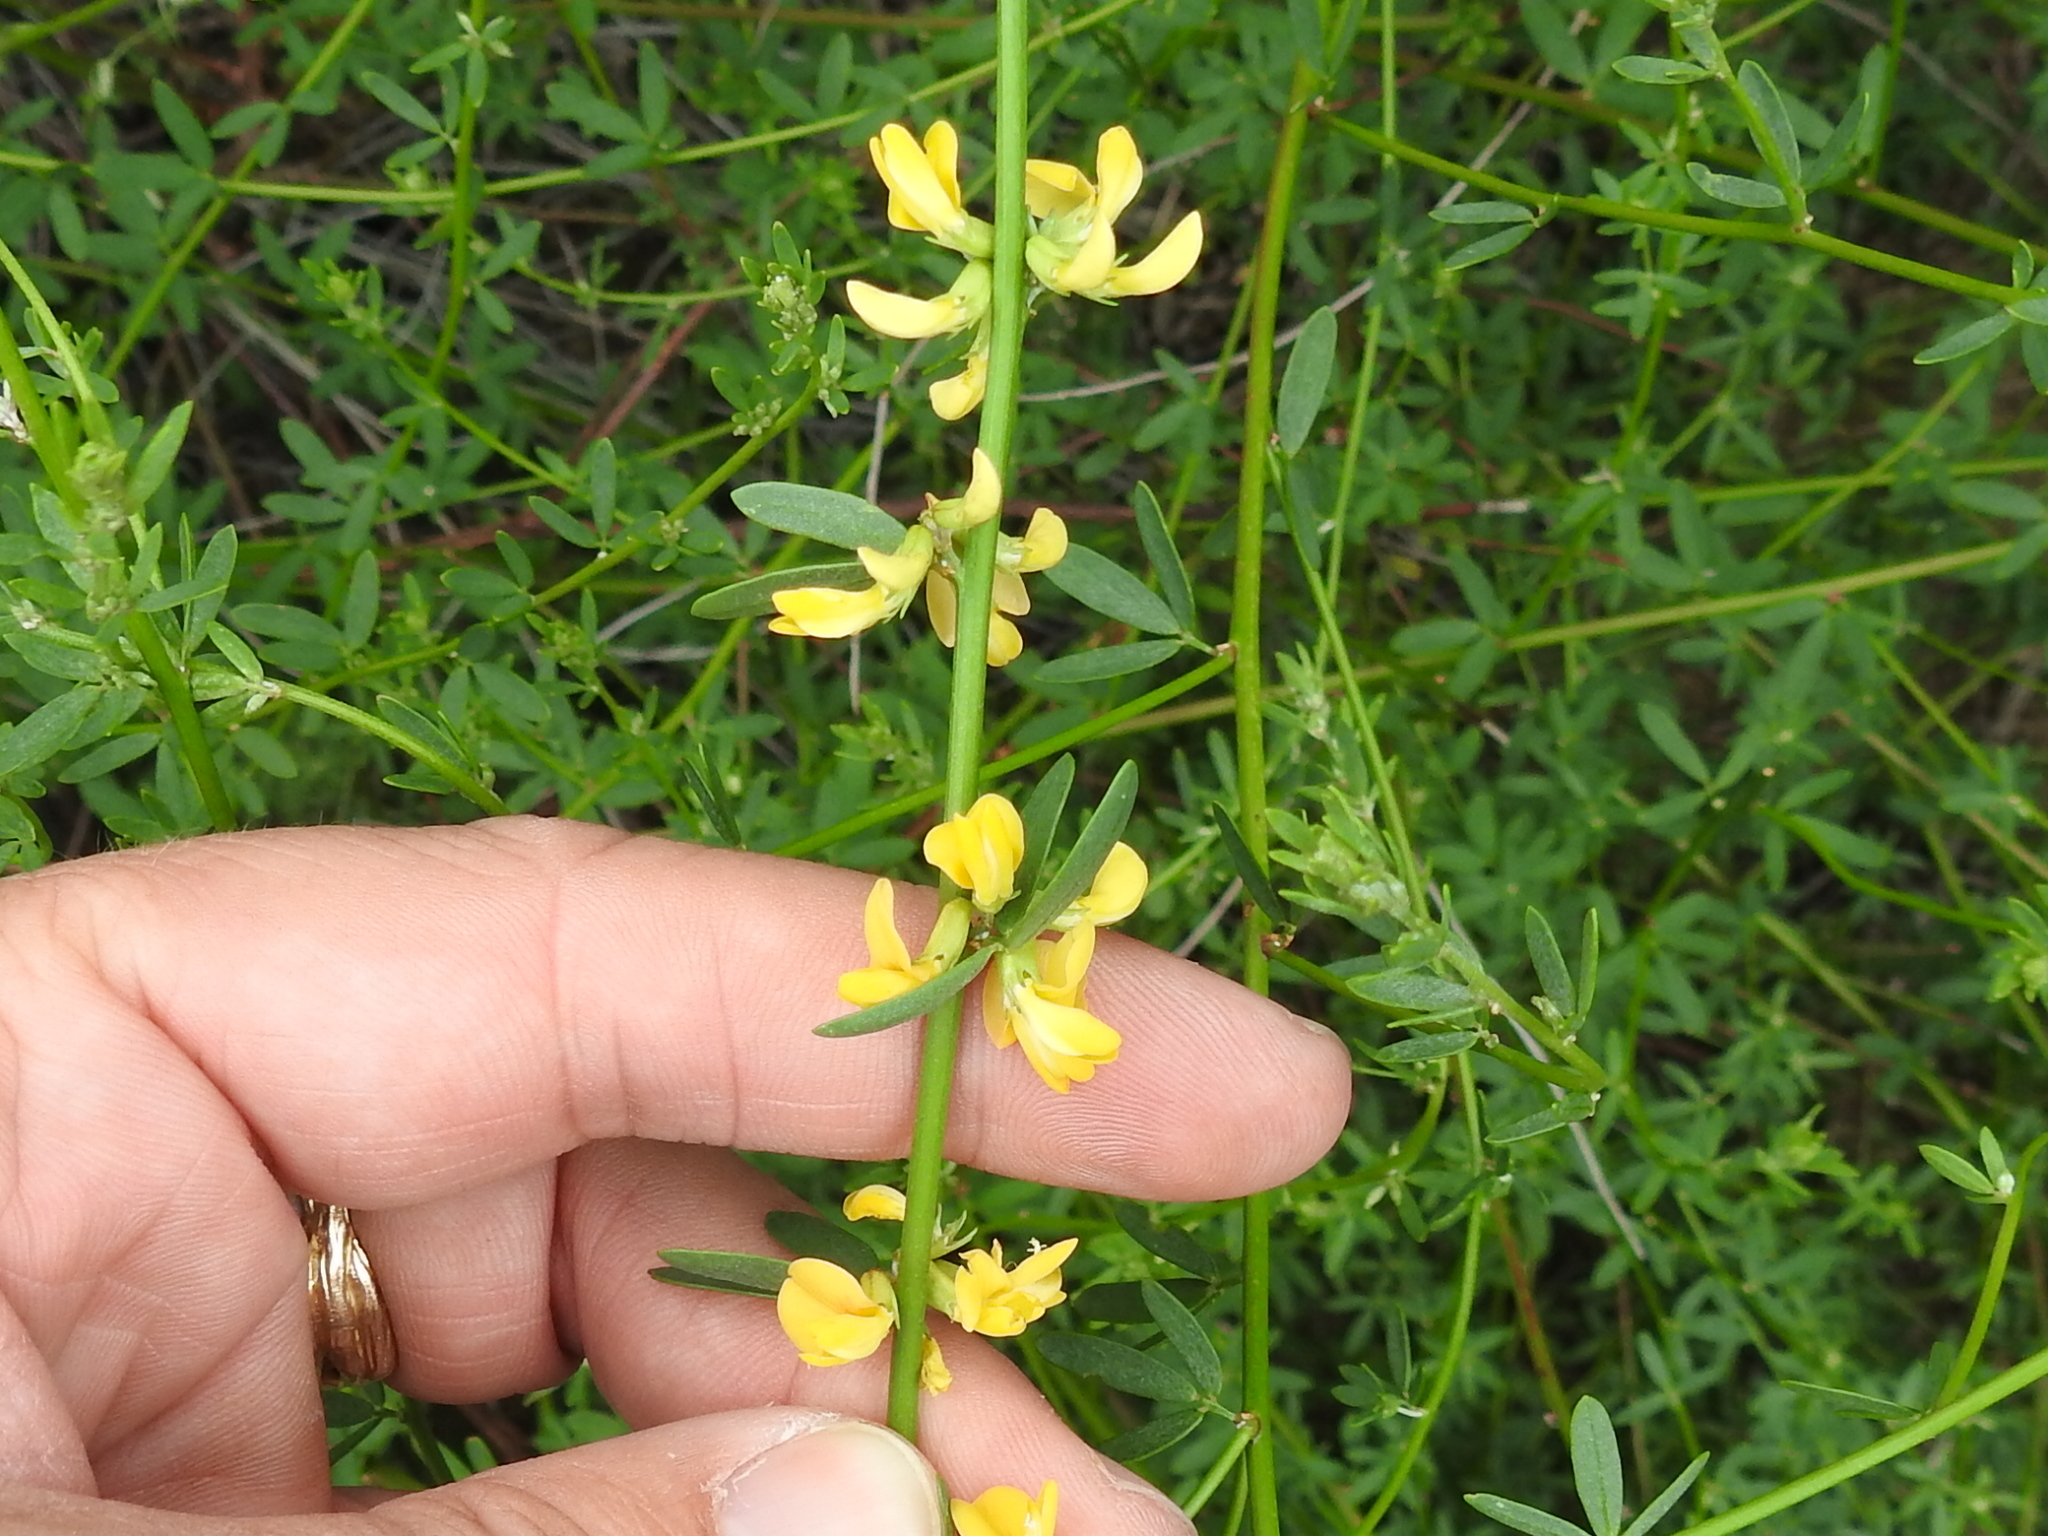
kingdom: Plantae
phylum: Tracheophyta
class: Magnoliopsida
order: Fabales
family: Fabaceae
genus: Acmispon
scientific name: Acmispon glaber
